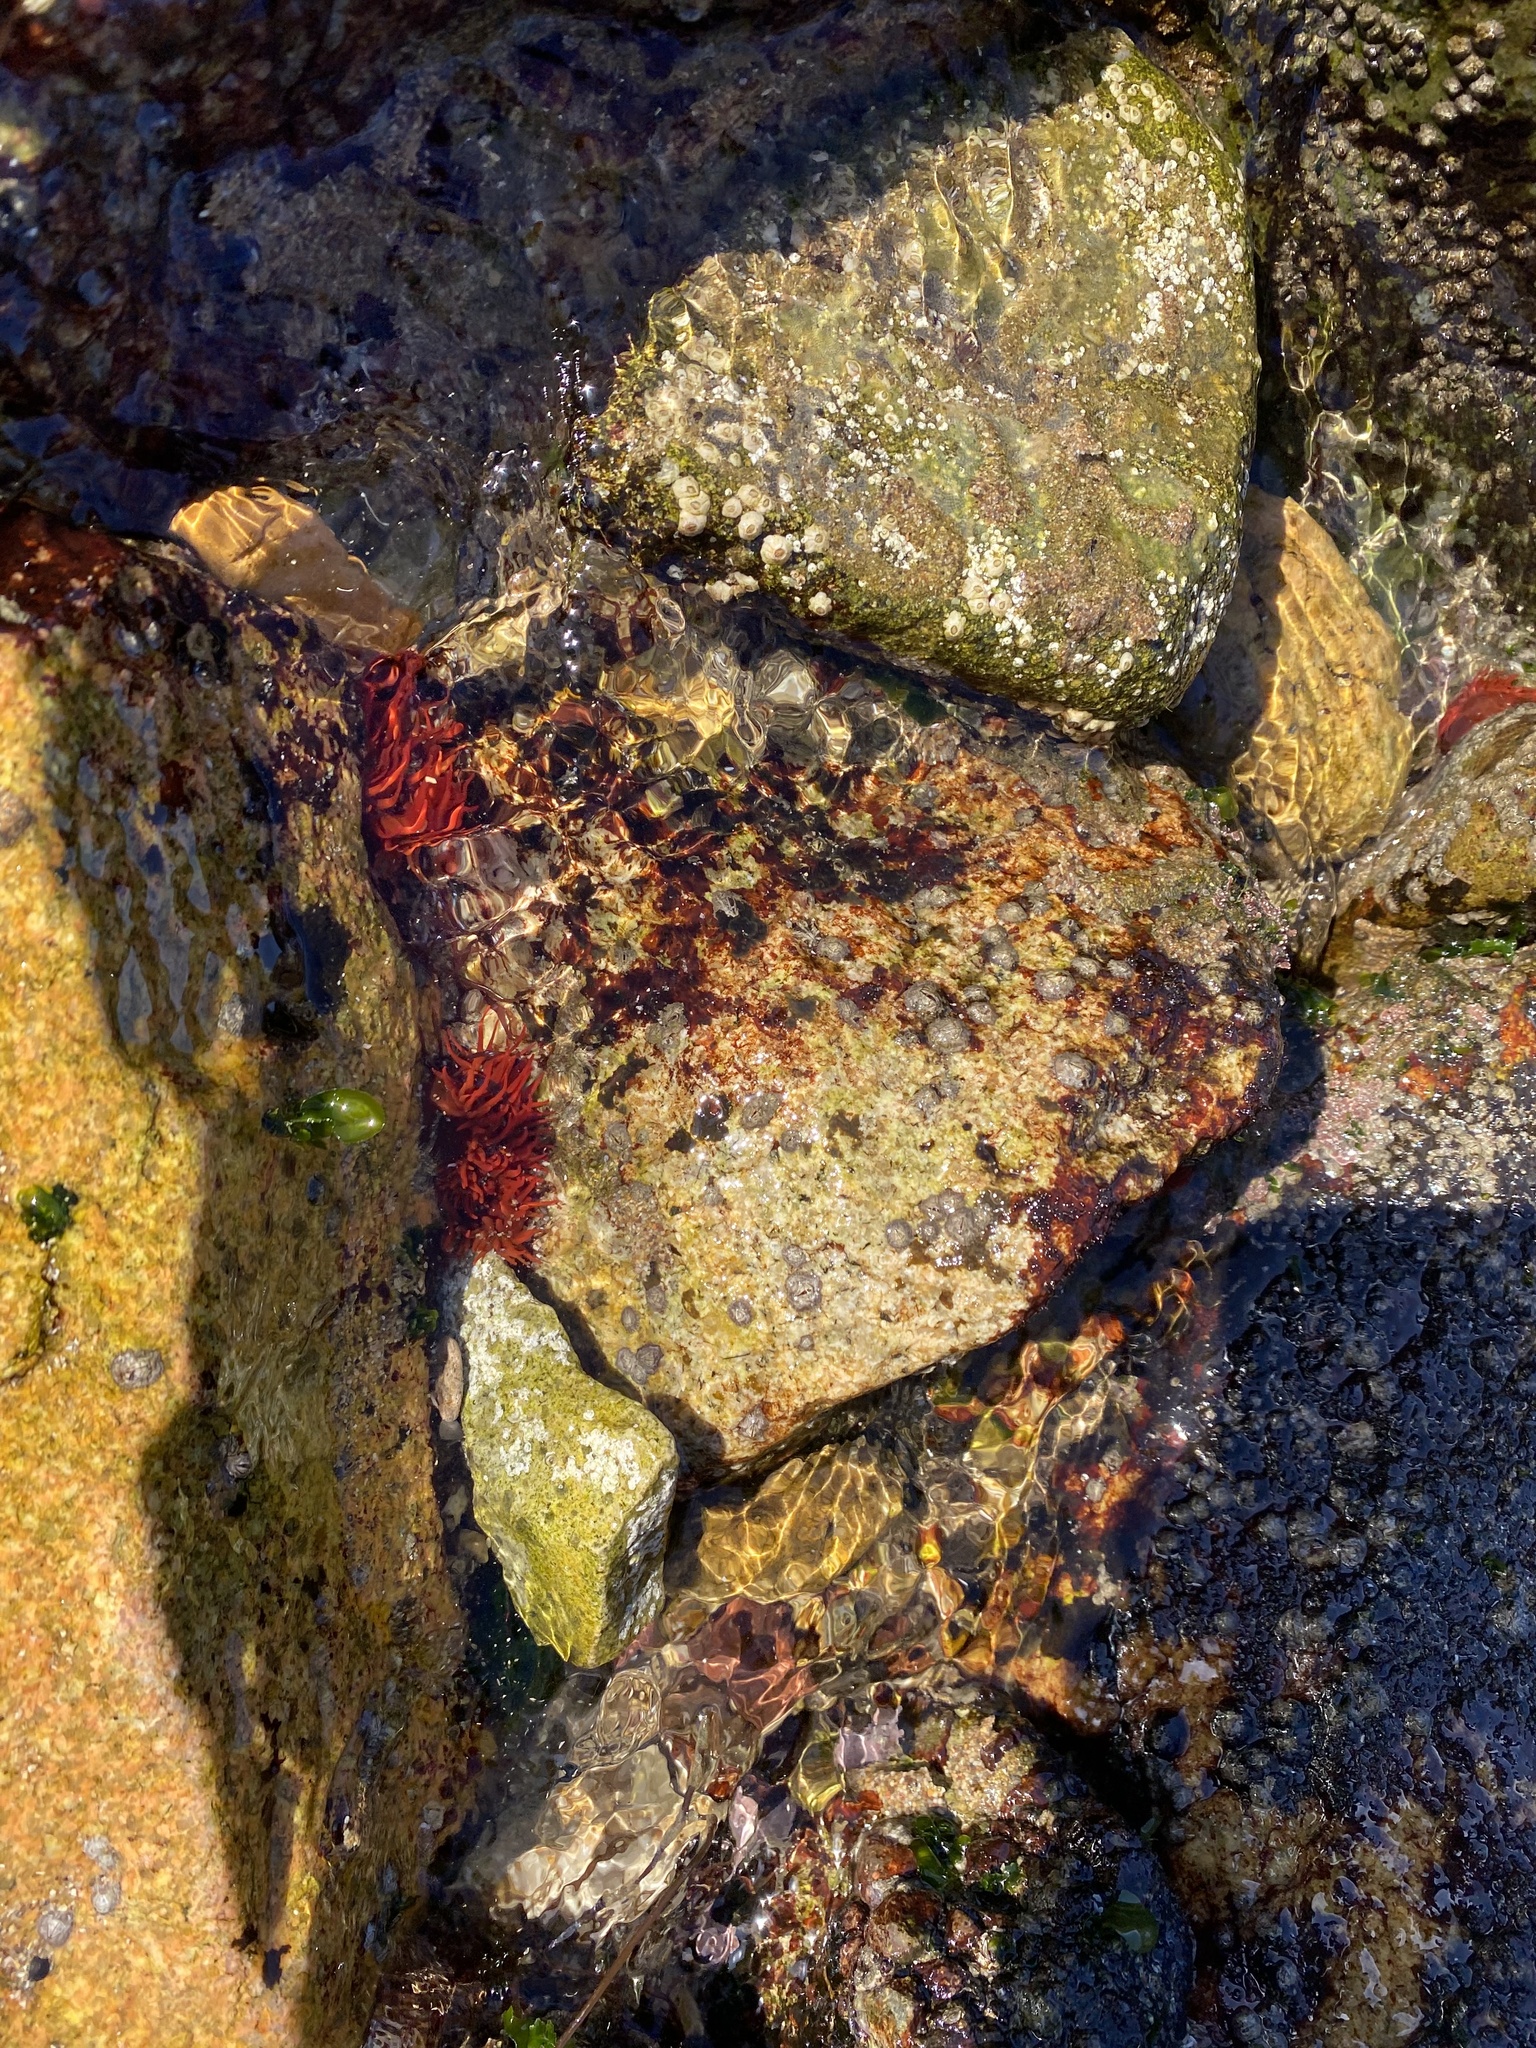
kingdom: Animalia
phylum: Cnidaria
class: Anthozoa
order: Actiniaria
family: Actiniidae
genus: Anemonia
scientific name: Anemonia alicemartinae
